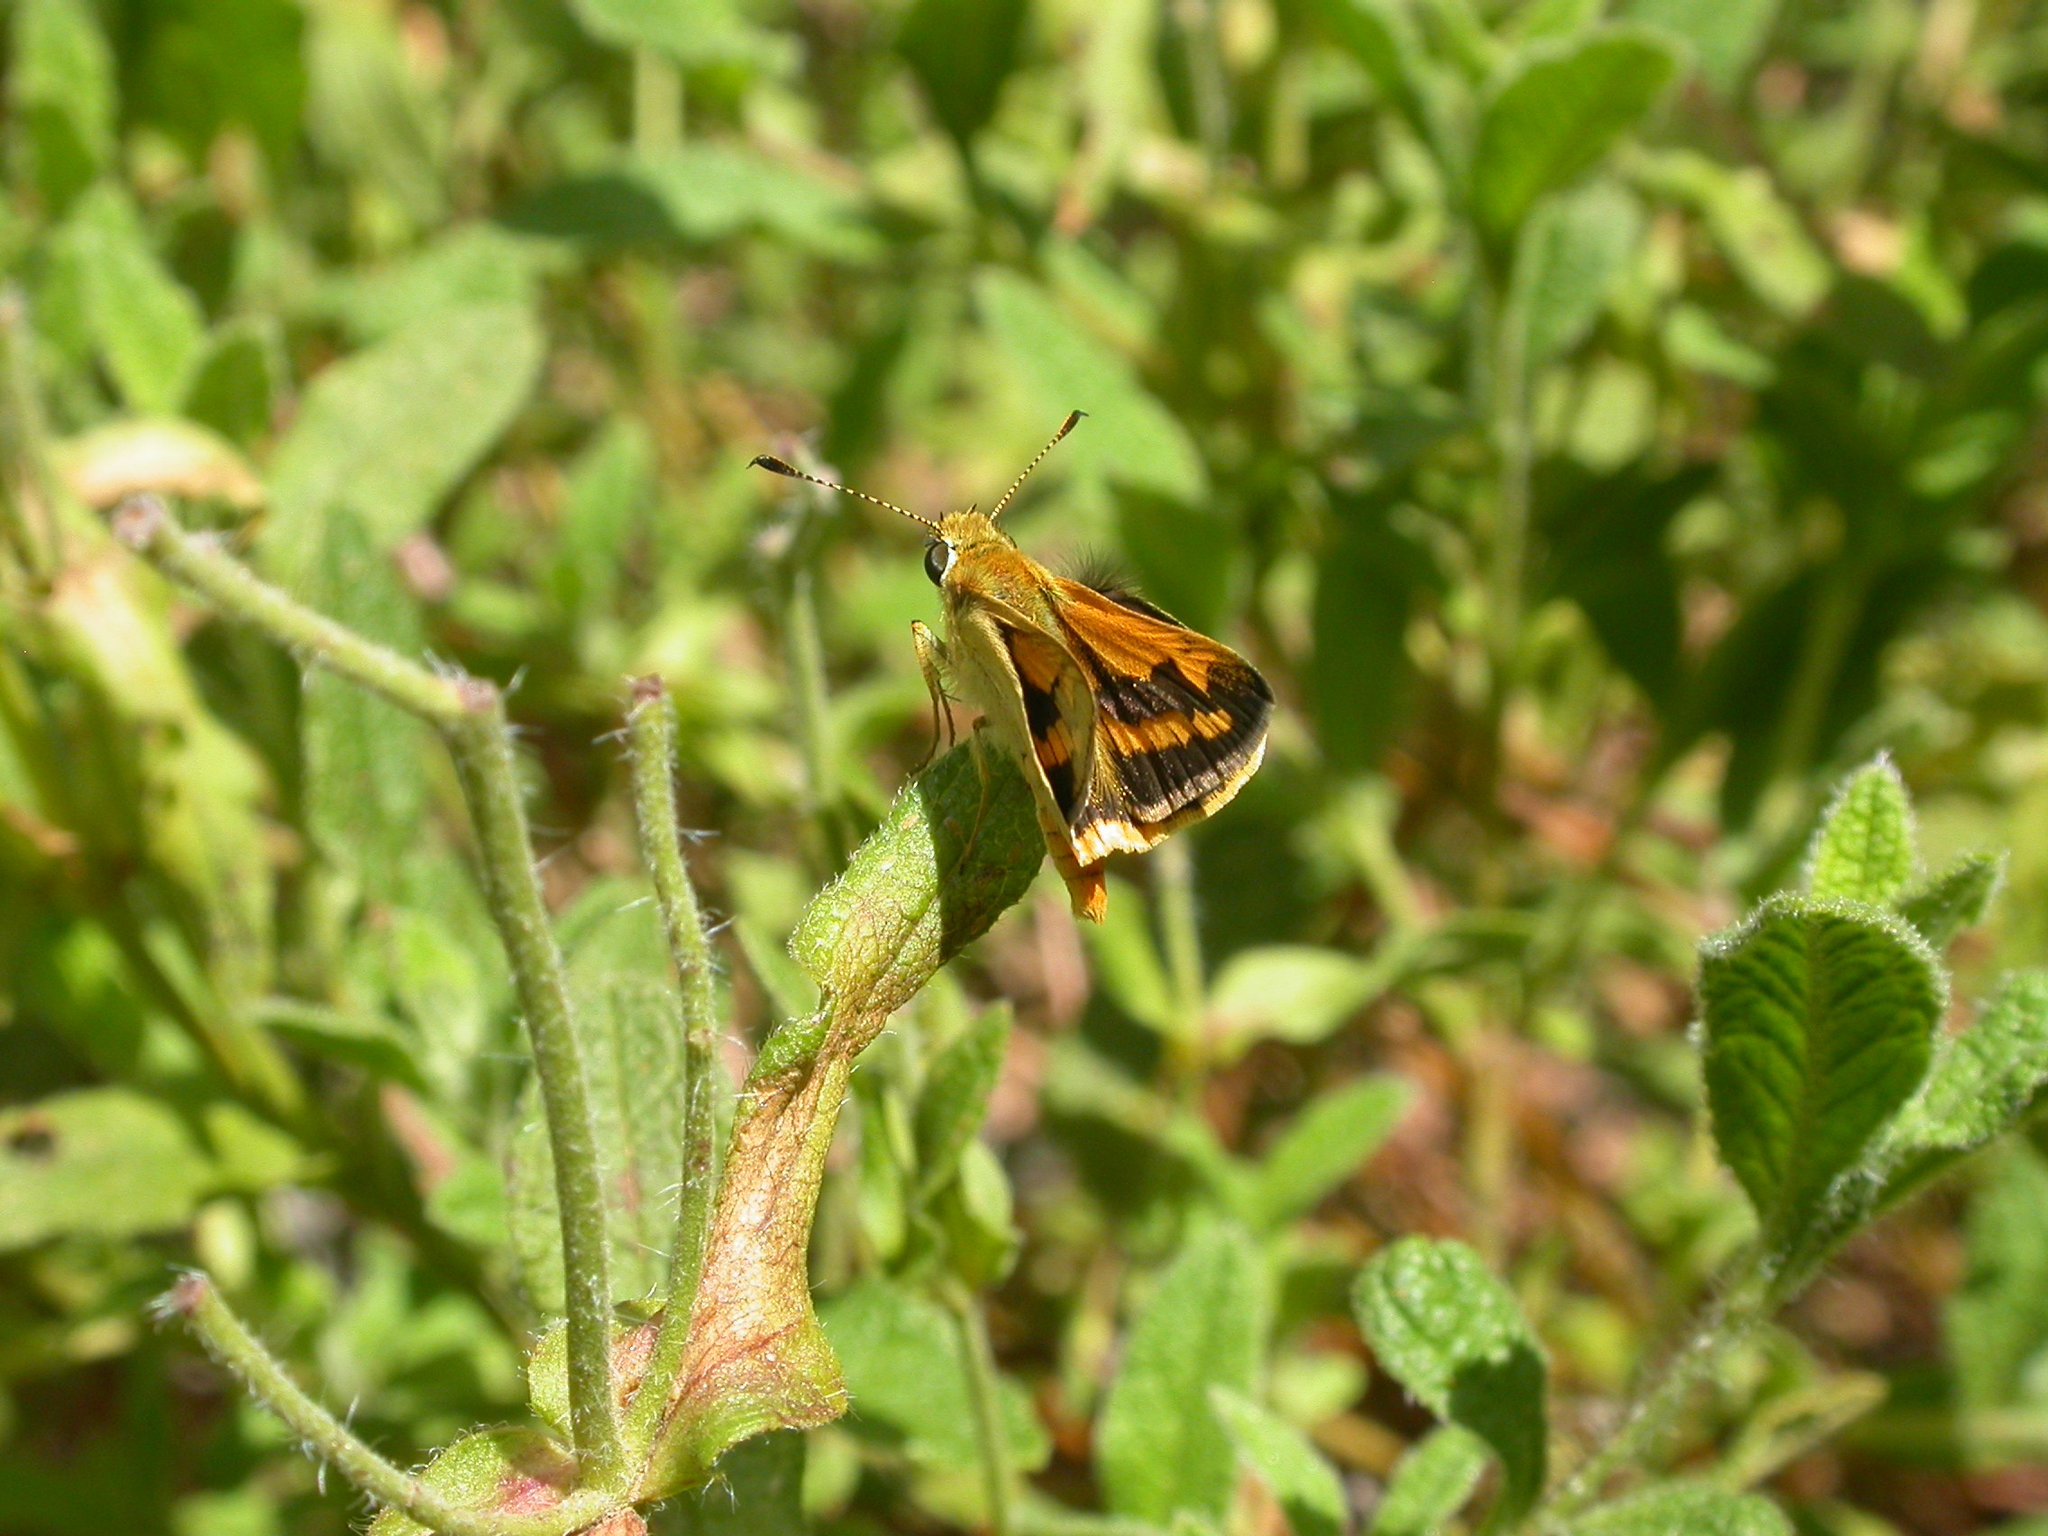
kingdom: Animalia
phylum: Arthropoda
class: Insecta
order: Lepidoptera
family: Hesperiidae
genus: Ocybadistes
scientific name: Ocybadistes walkeri
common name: Yellow-banded dart
